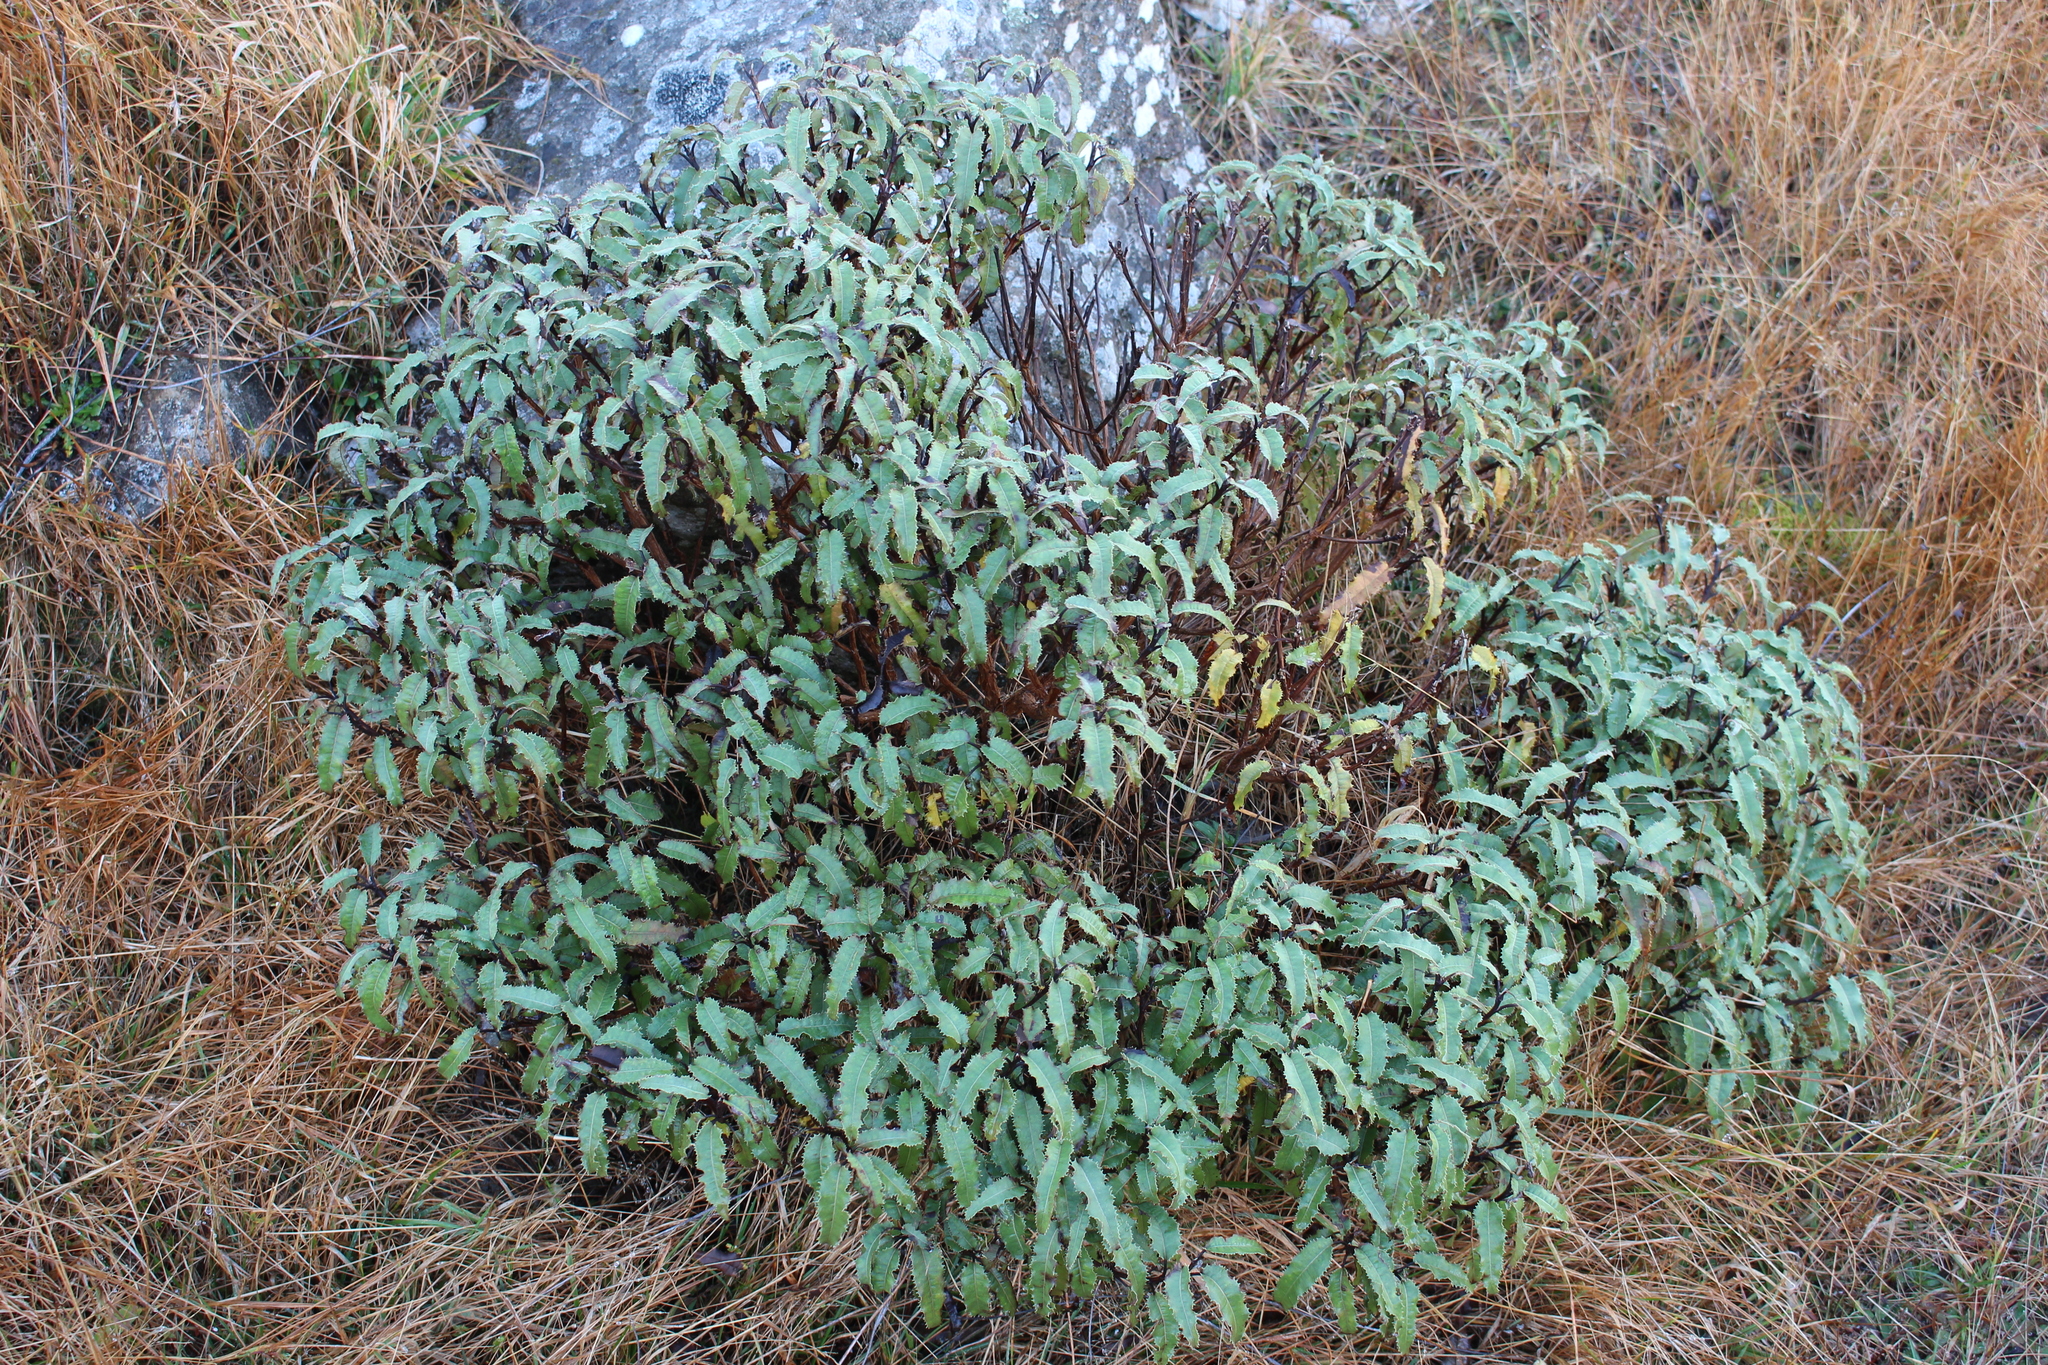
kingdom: Plantae
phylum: Tracheophyta
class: Magnoliopsida
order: Asterales
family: Asteraceae
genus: Olearia
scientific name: Olearia ilicifolia
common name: Maori-holly
